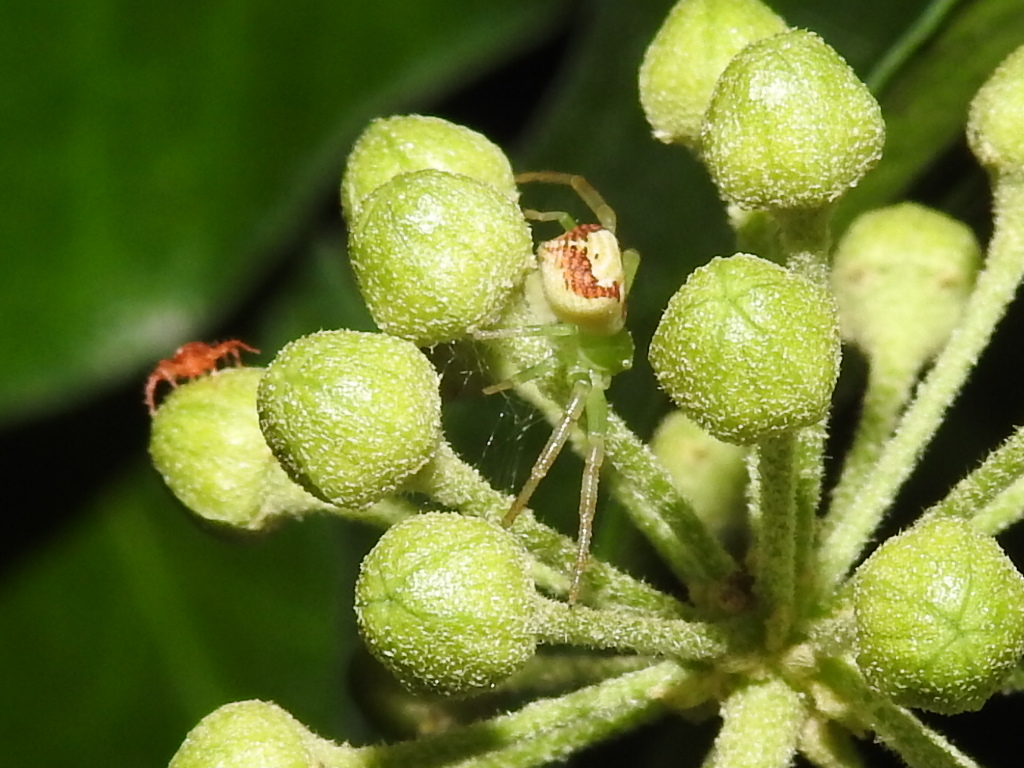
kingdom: Animalia
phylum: Arthropoda
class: Arachnida
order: Araneae
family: Thomisidae
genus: Ebrechtella
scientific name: Ebrechtella tricuspidata
